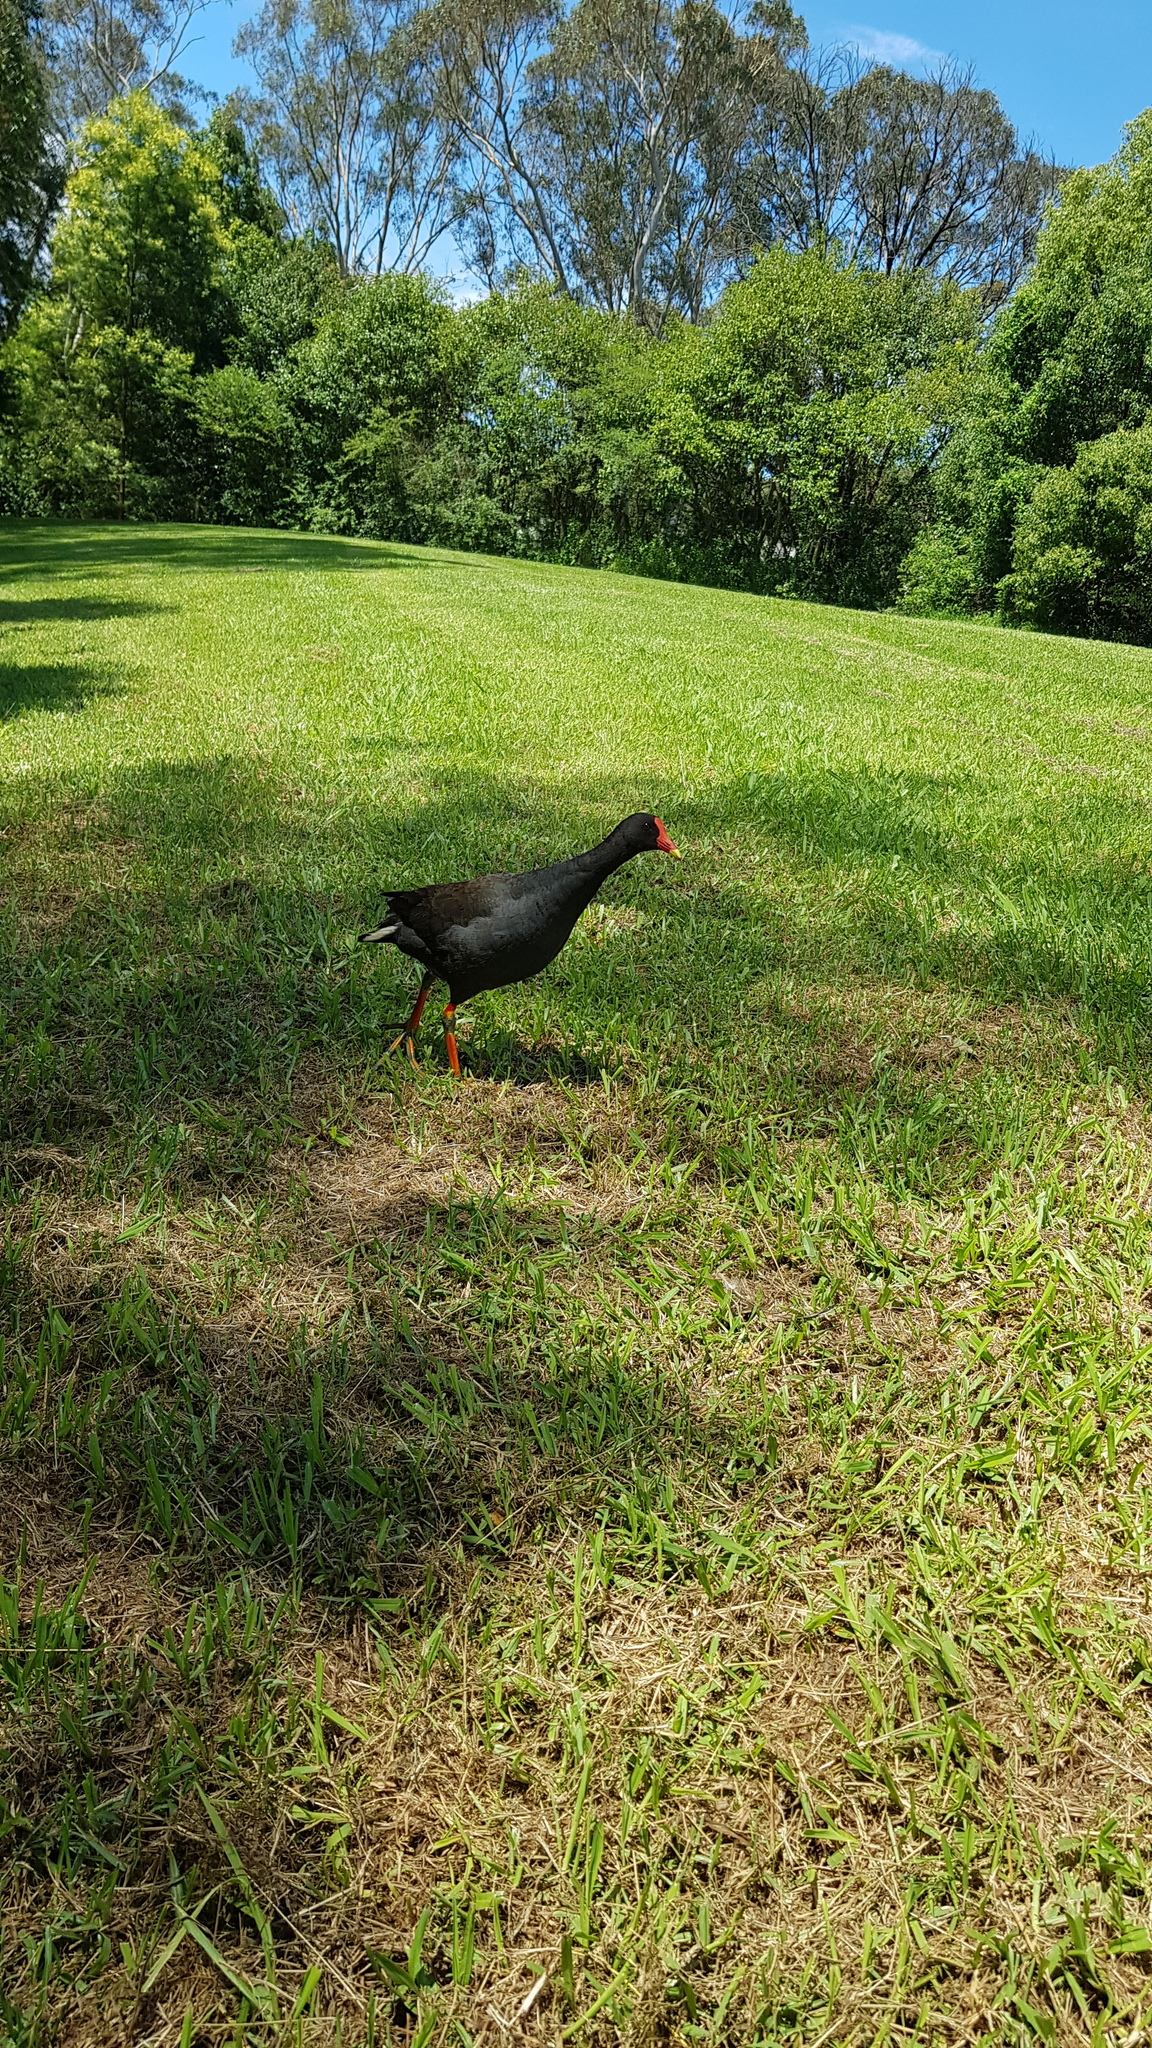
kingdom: Animalia
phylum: Chordata
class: Aves
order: Gruiformes
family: Rallidae
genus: Gallinula
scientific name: Gallinula tenebrosa
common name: Dusky moorhen
